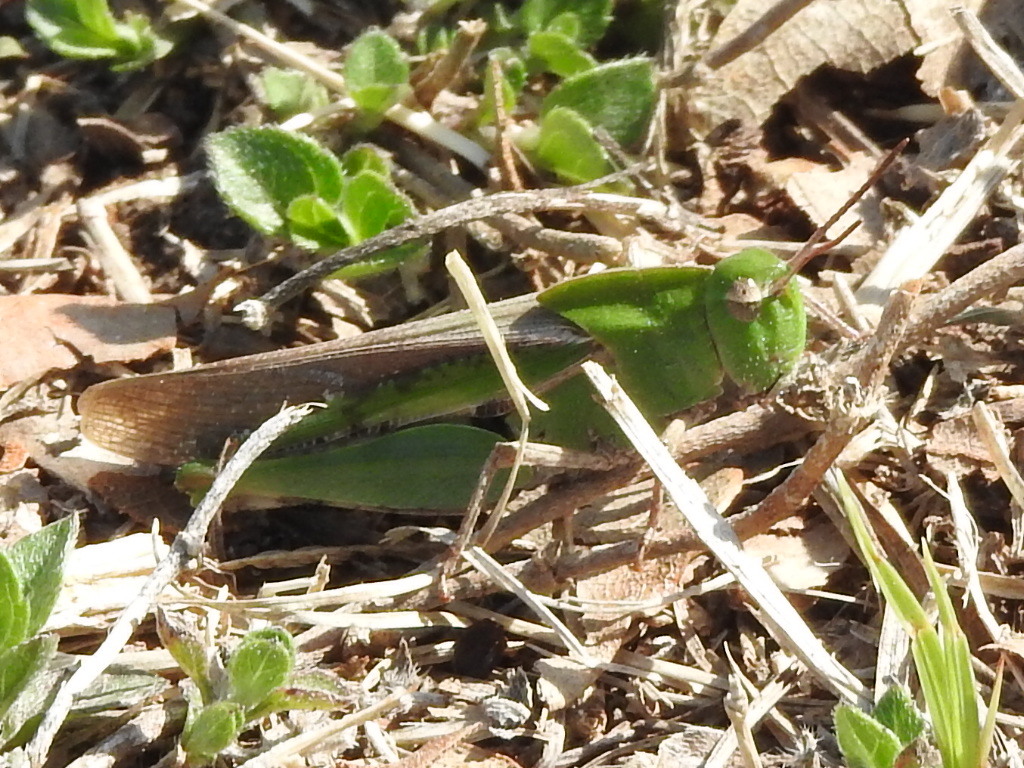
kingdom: Animalia
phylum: Arthropoda
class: Insecta
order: Orthoptera
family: Acrididae
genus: Chortophaga
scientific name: Chortophaga viridifasciata
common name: Green-striped grasshopper
